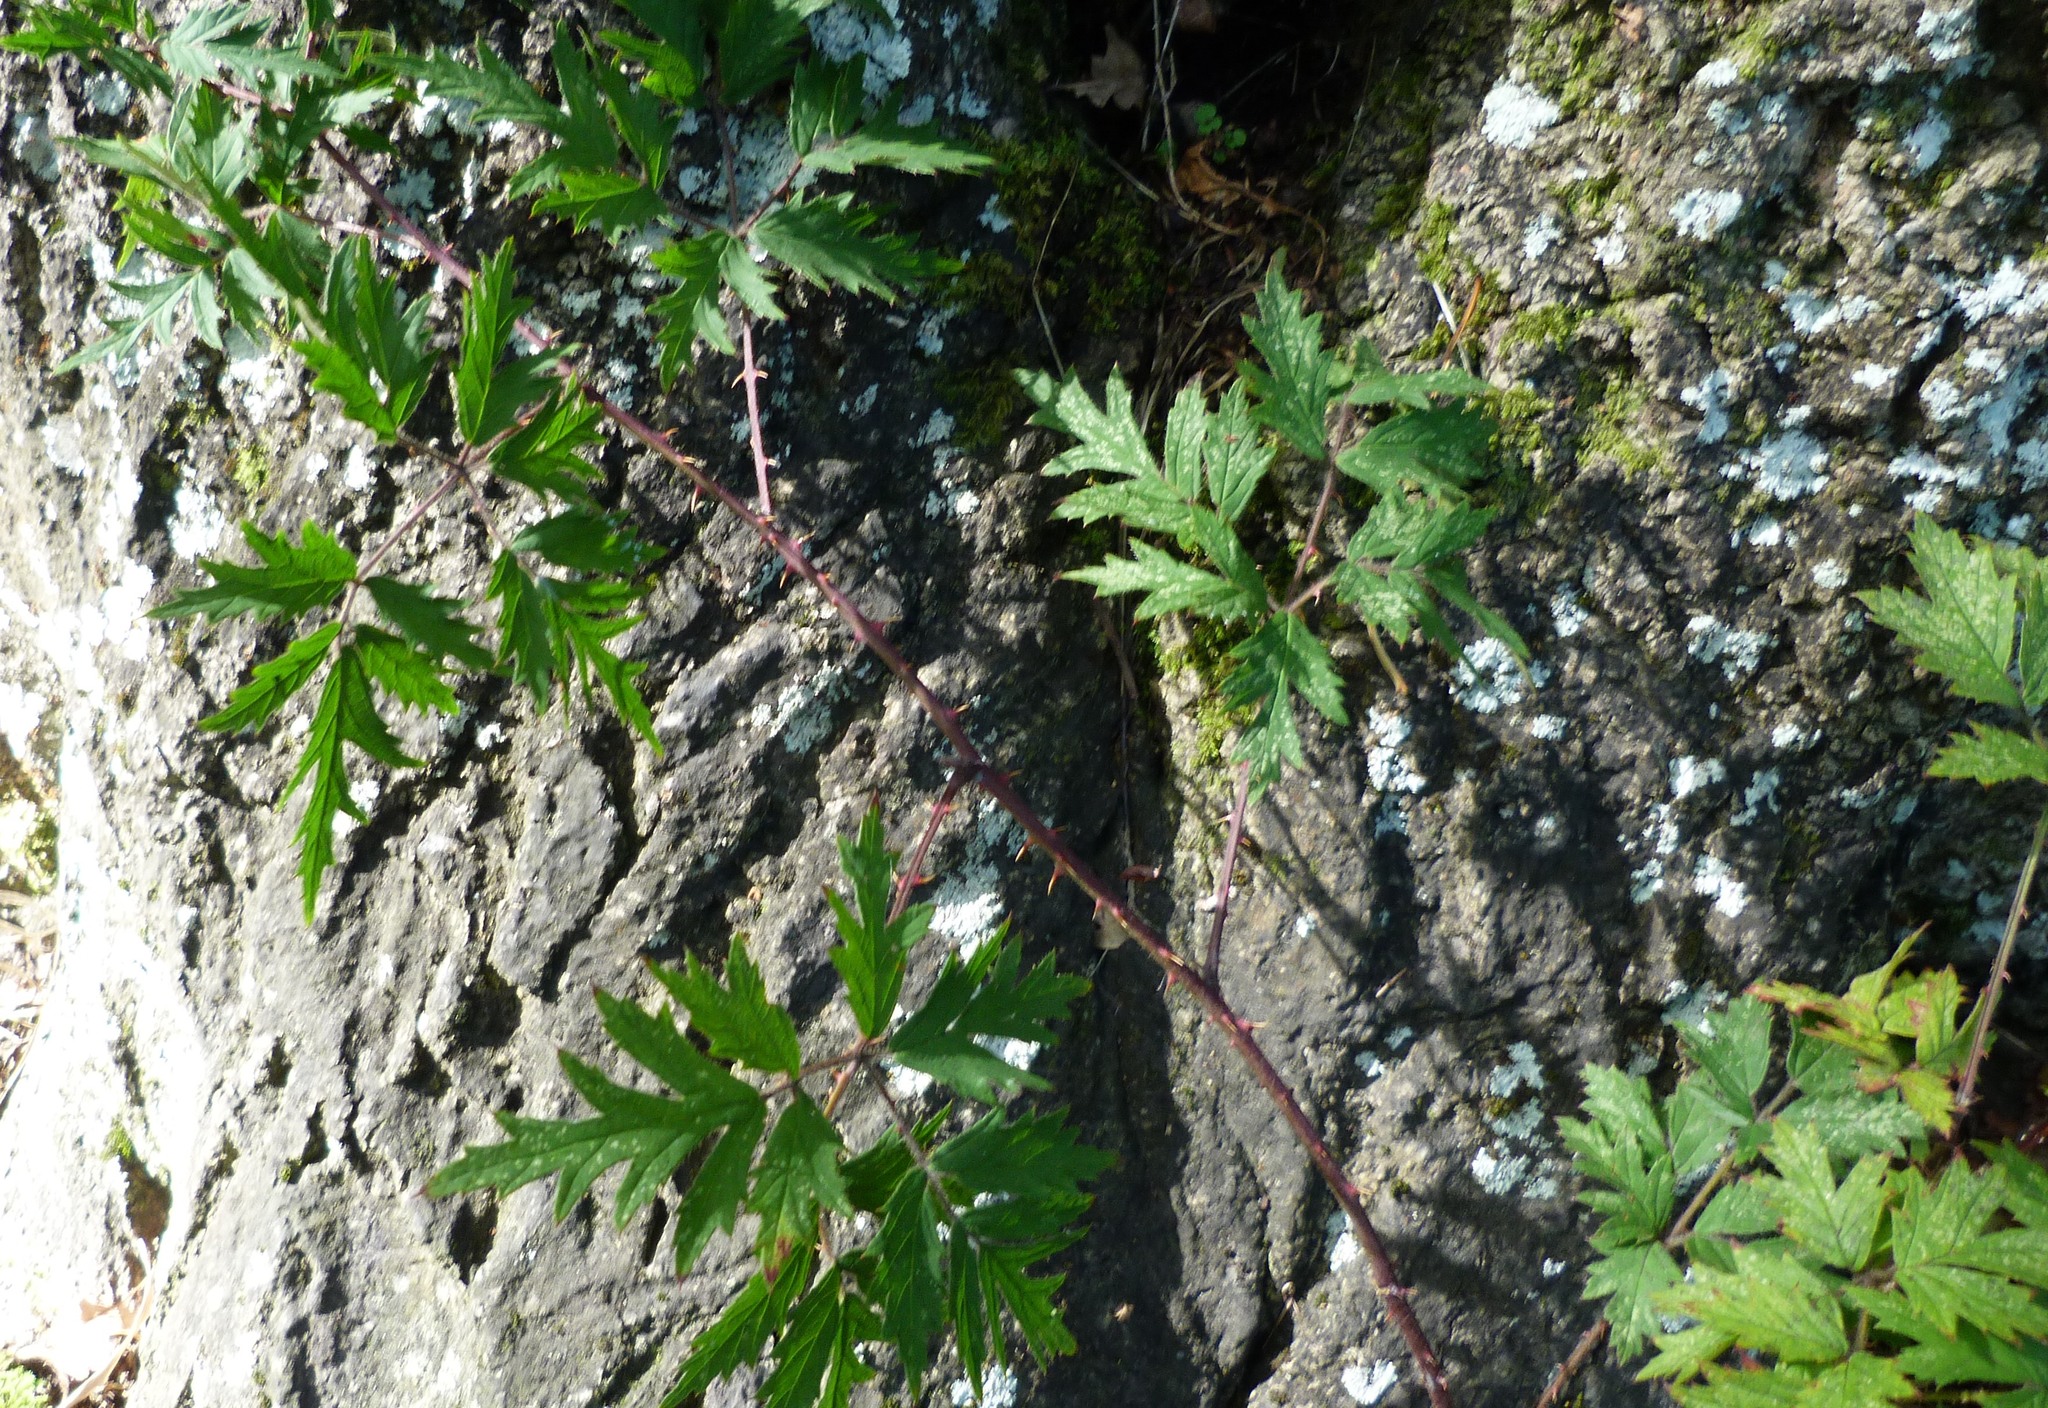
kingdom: Plantae
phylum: Tracheophyta
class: Magnoliopsida
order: Rosales
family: Rosaceae
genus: Rubus
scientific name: Rubus laciniatus
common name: Evergreen blackberry
